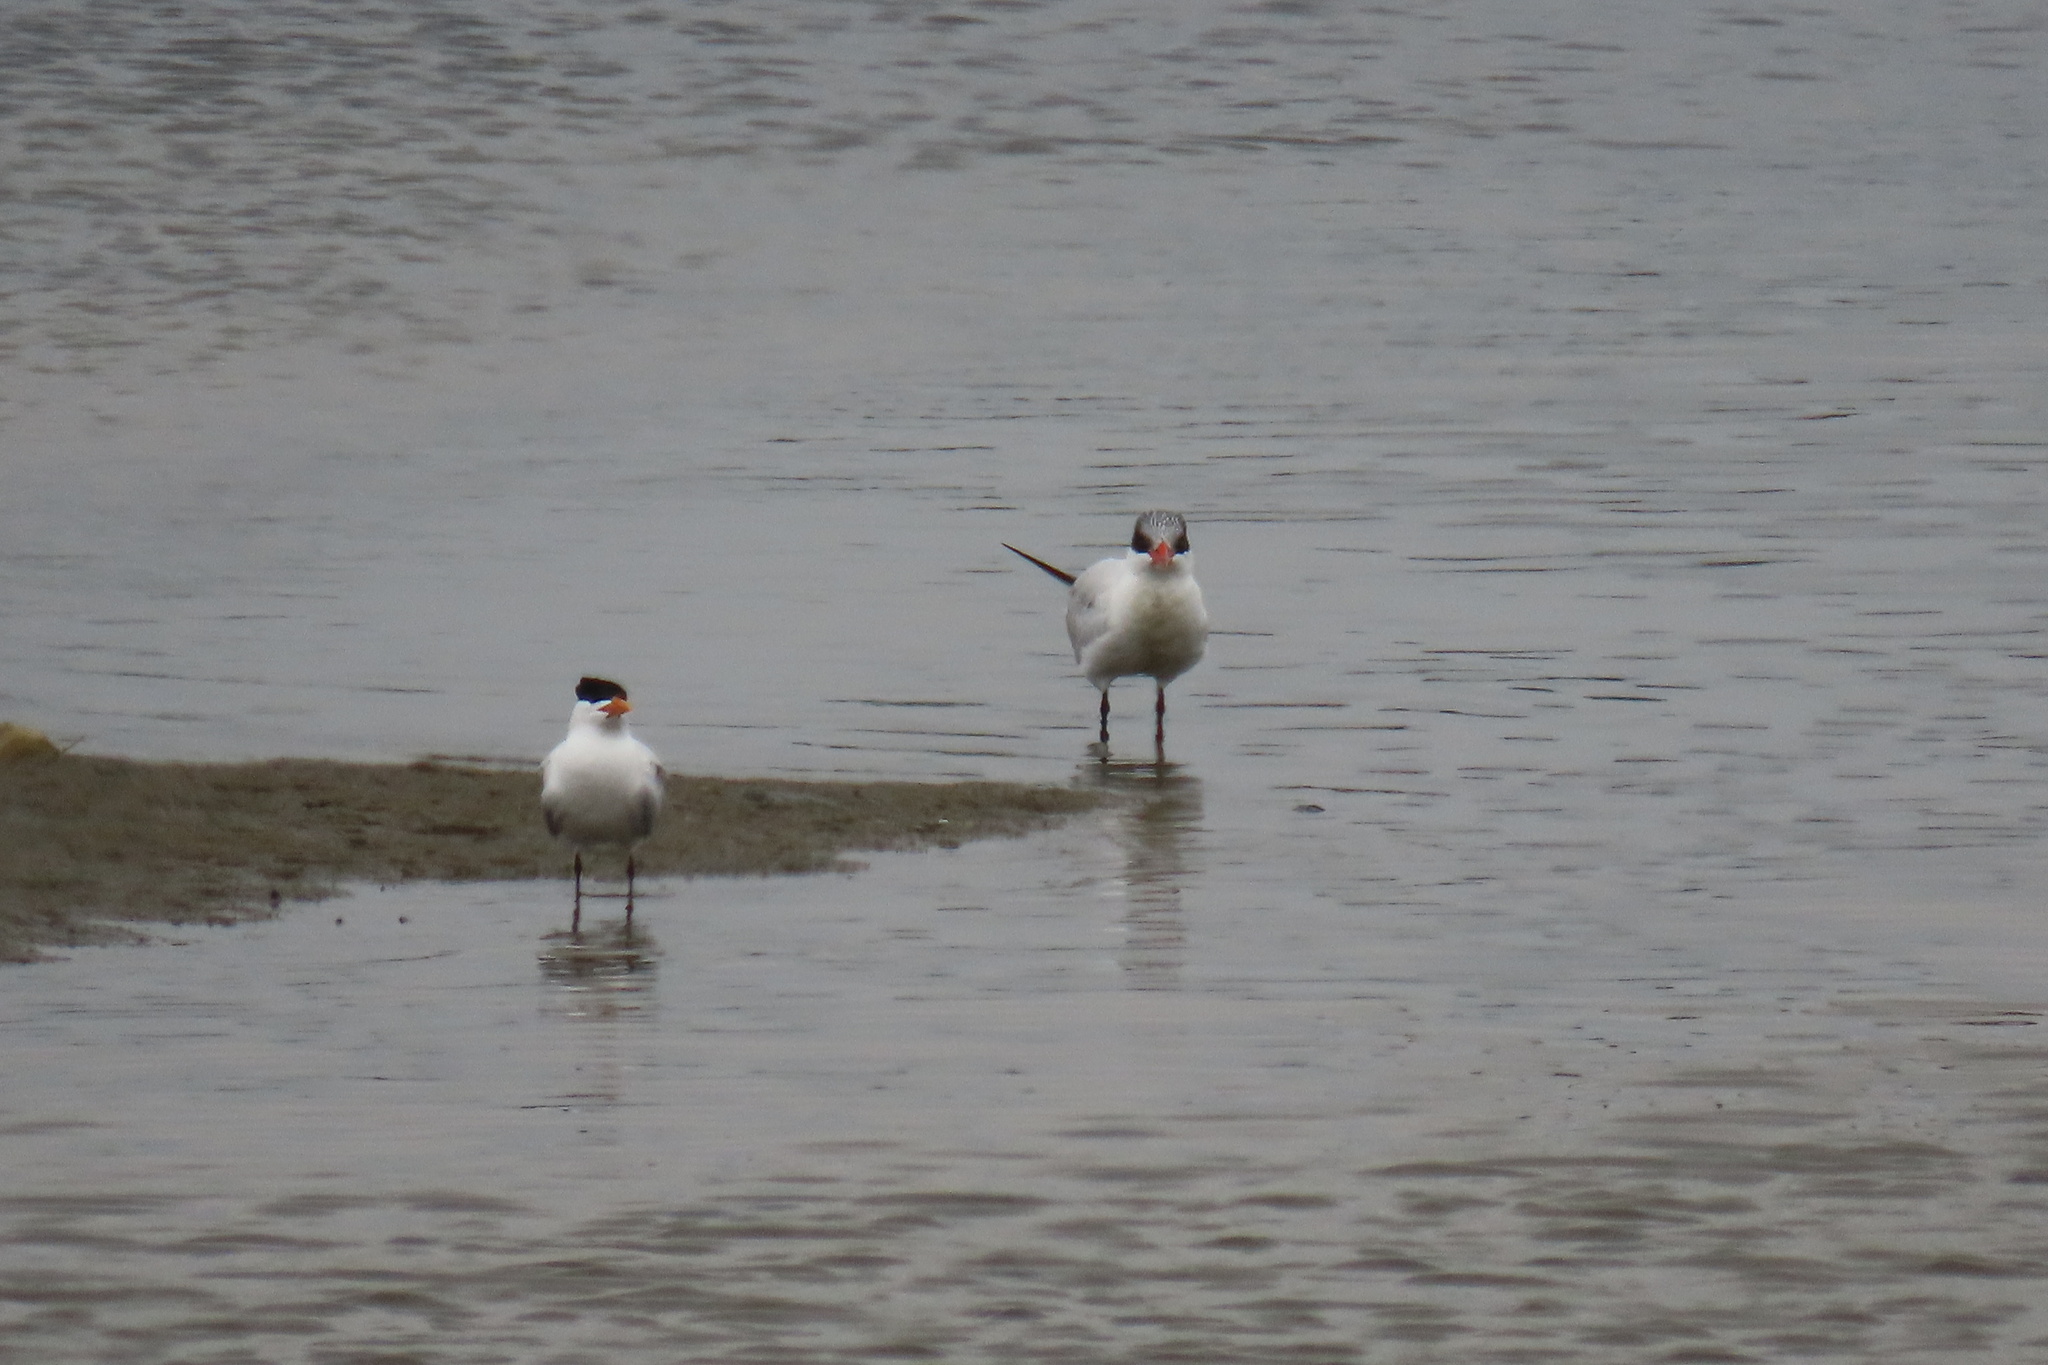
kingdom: Animalia
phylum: Chordata
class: Aves
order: Charadriiformes
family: Laridae
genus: Thalasseus
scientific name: Thalasseus maximus
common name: Royal tern
